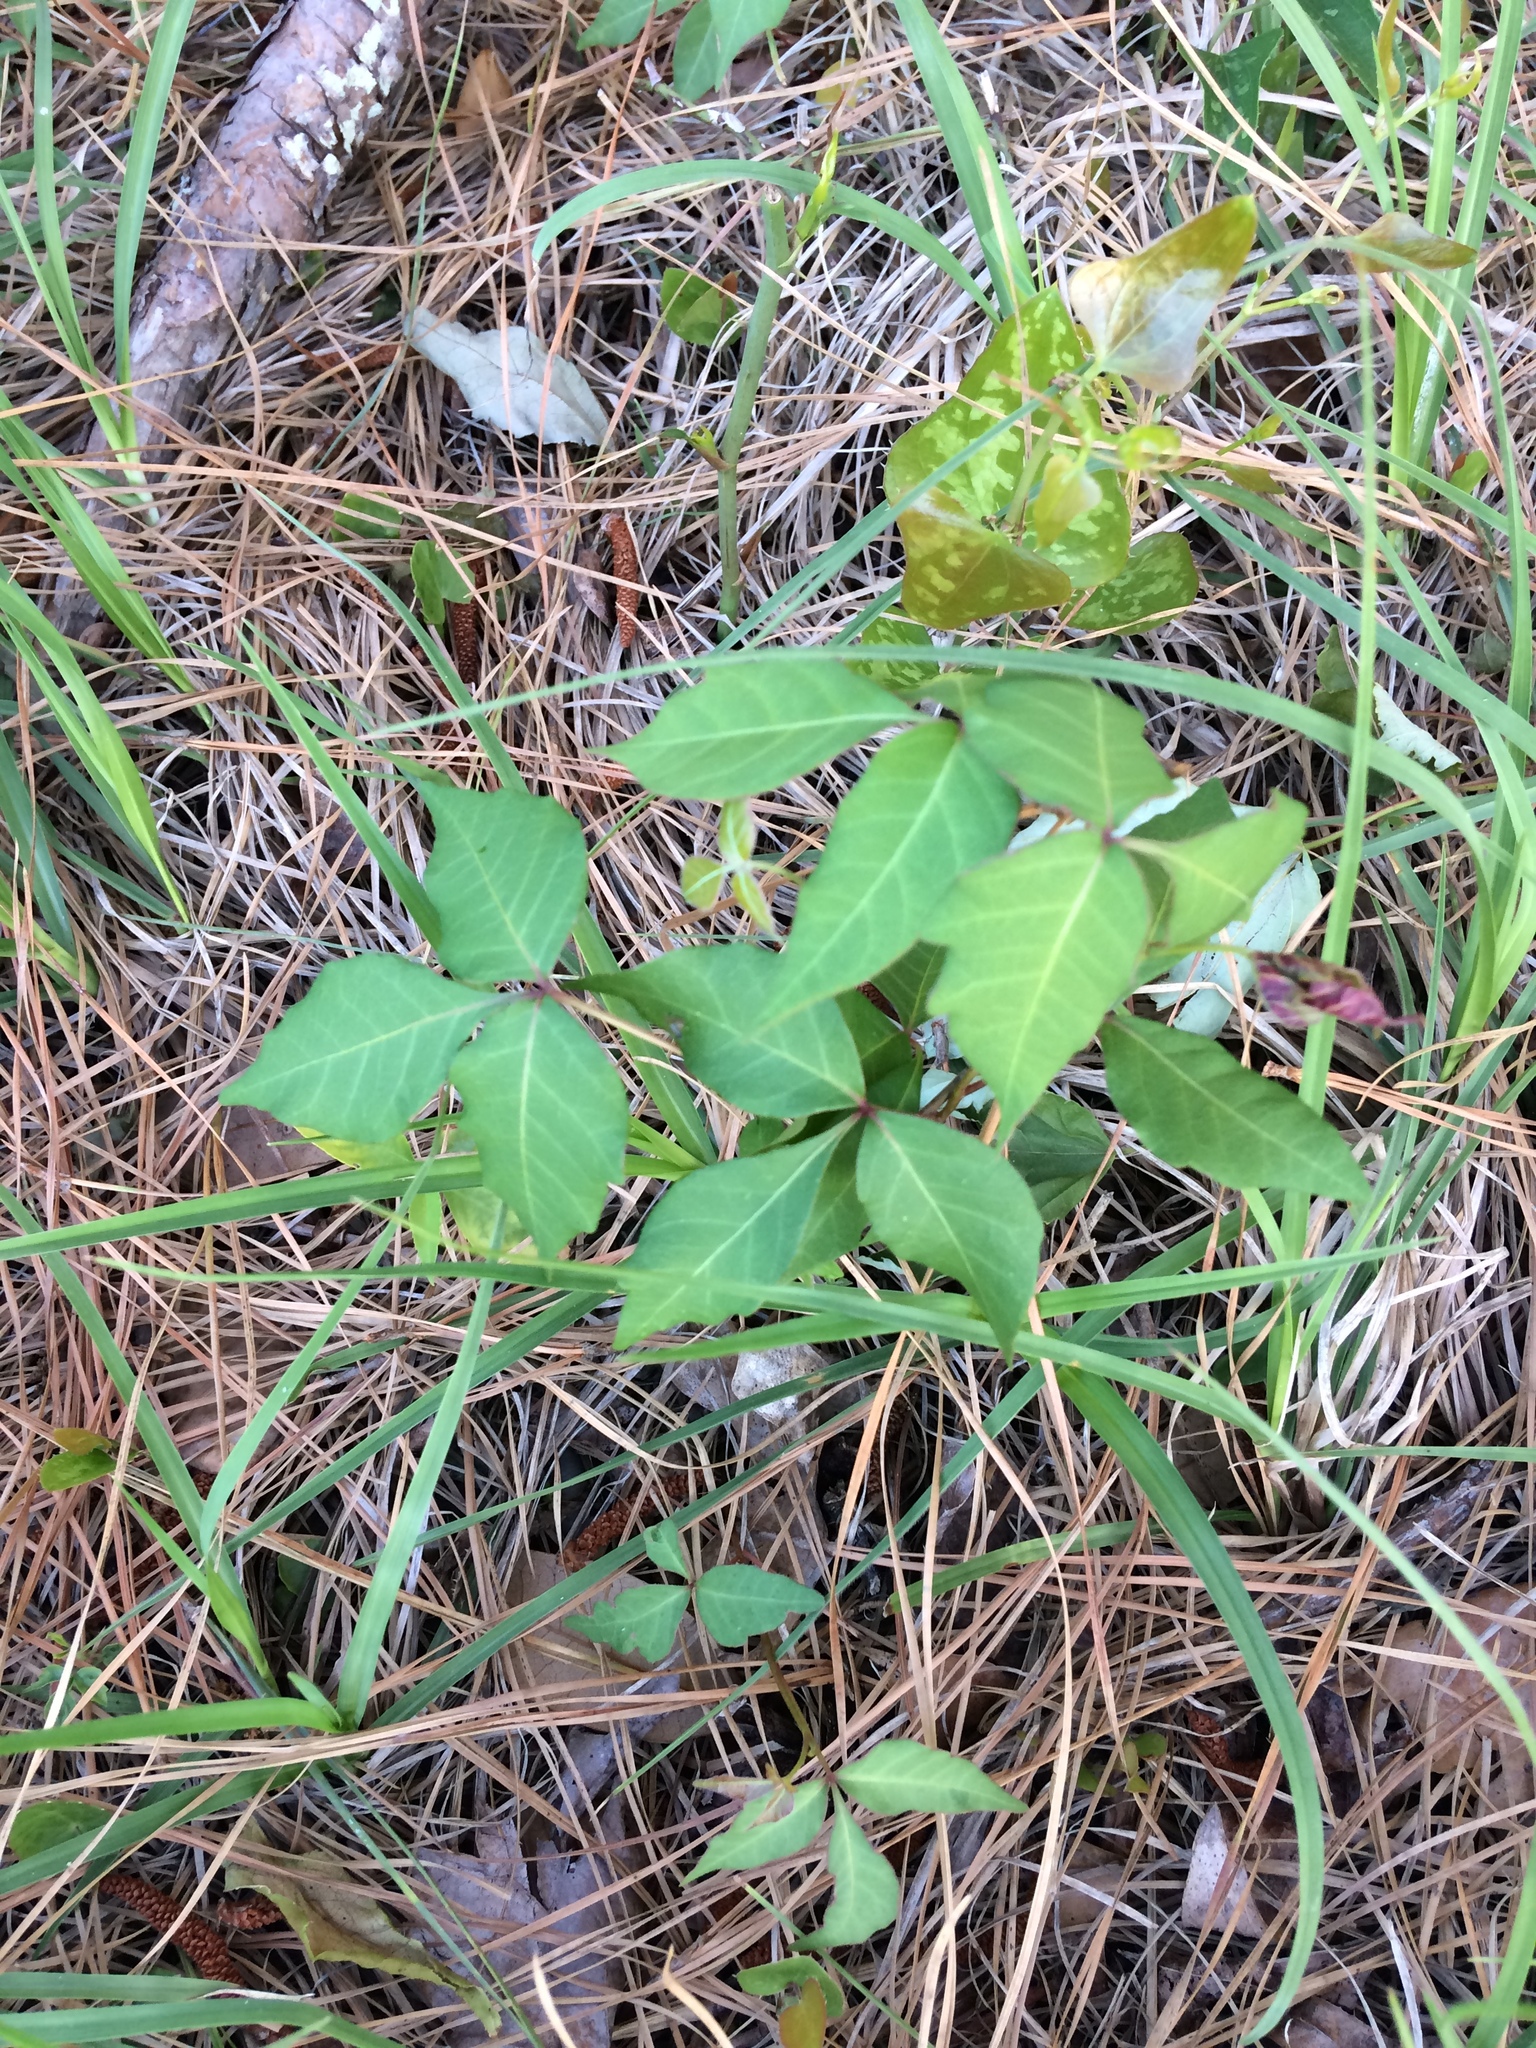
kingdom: Plantae
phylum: Tracheophyta
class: Magnoliopsida
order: Sapindales
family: Anacardiaceae
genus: Toxicodendron
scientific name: Toxicodendron radicans
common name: Poison ivy
